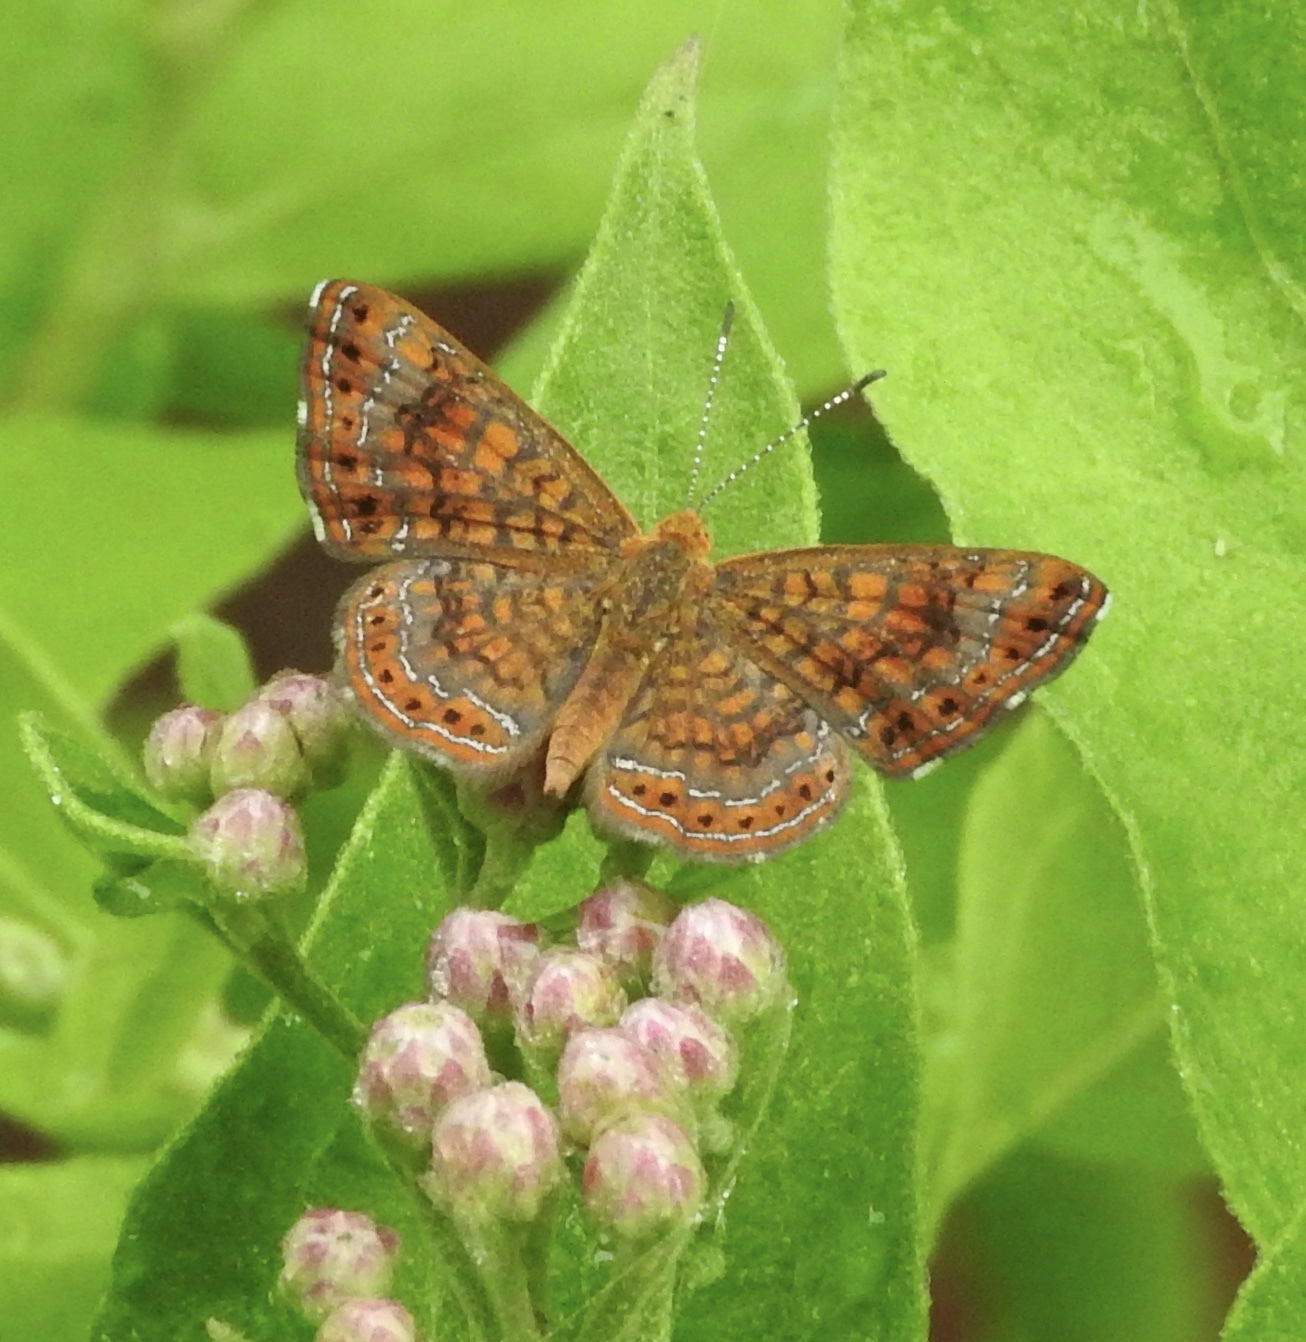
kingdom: Animalia
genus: Calephelis
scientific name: Calephelis nemesis
